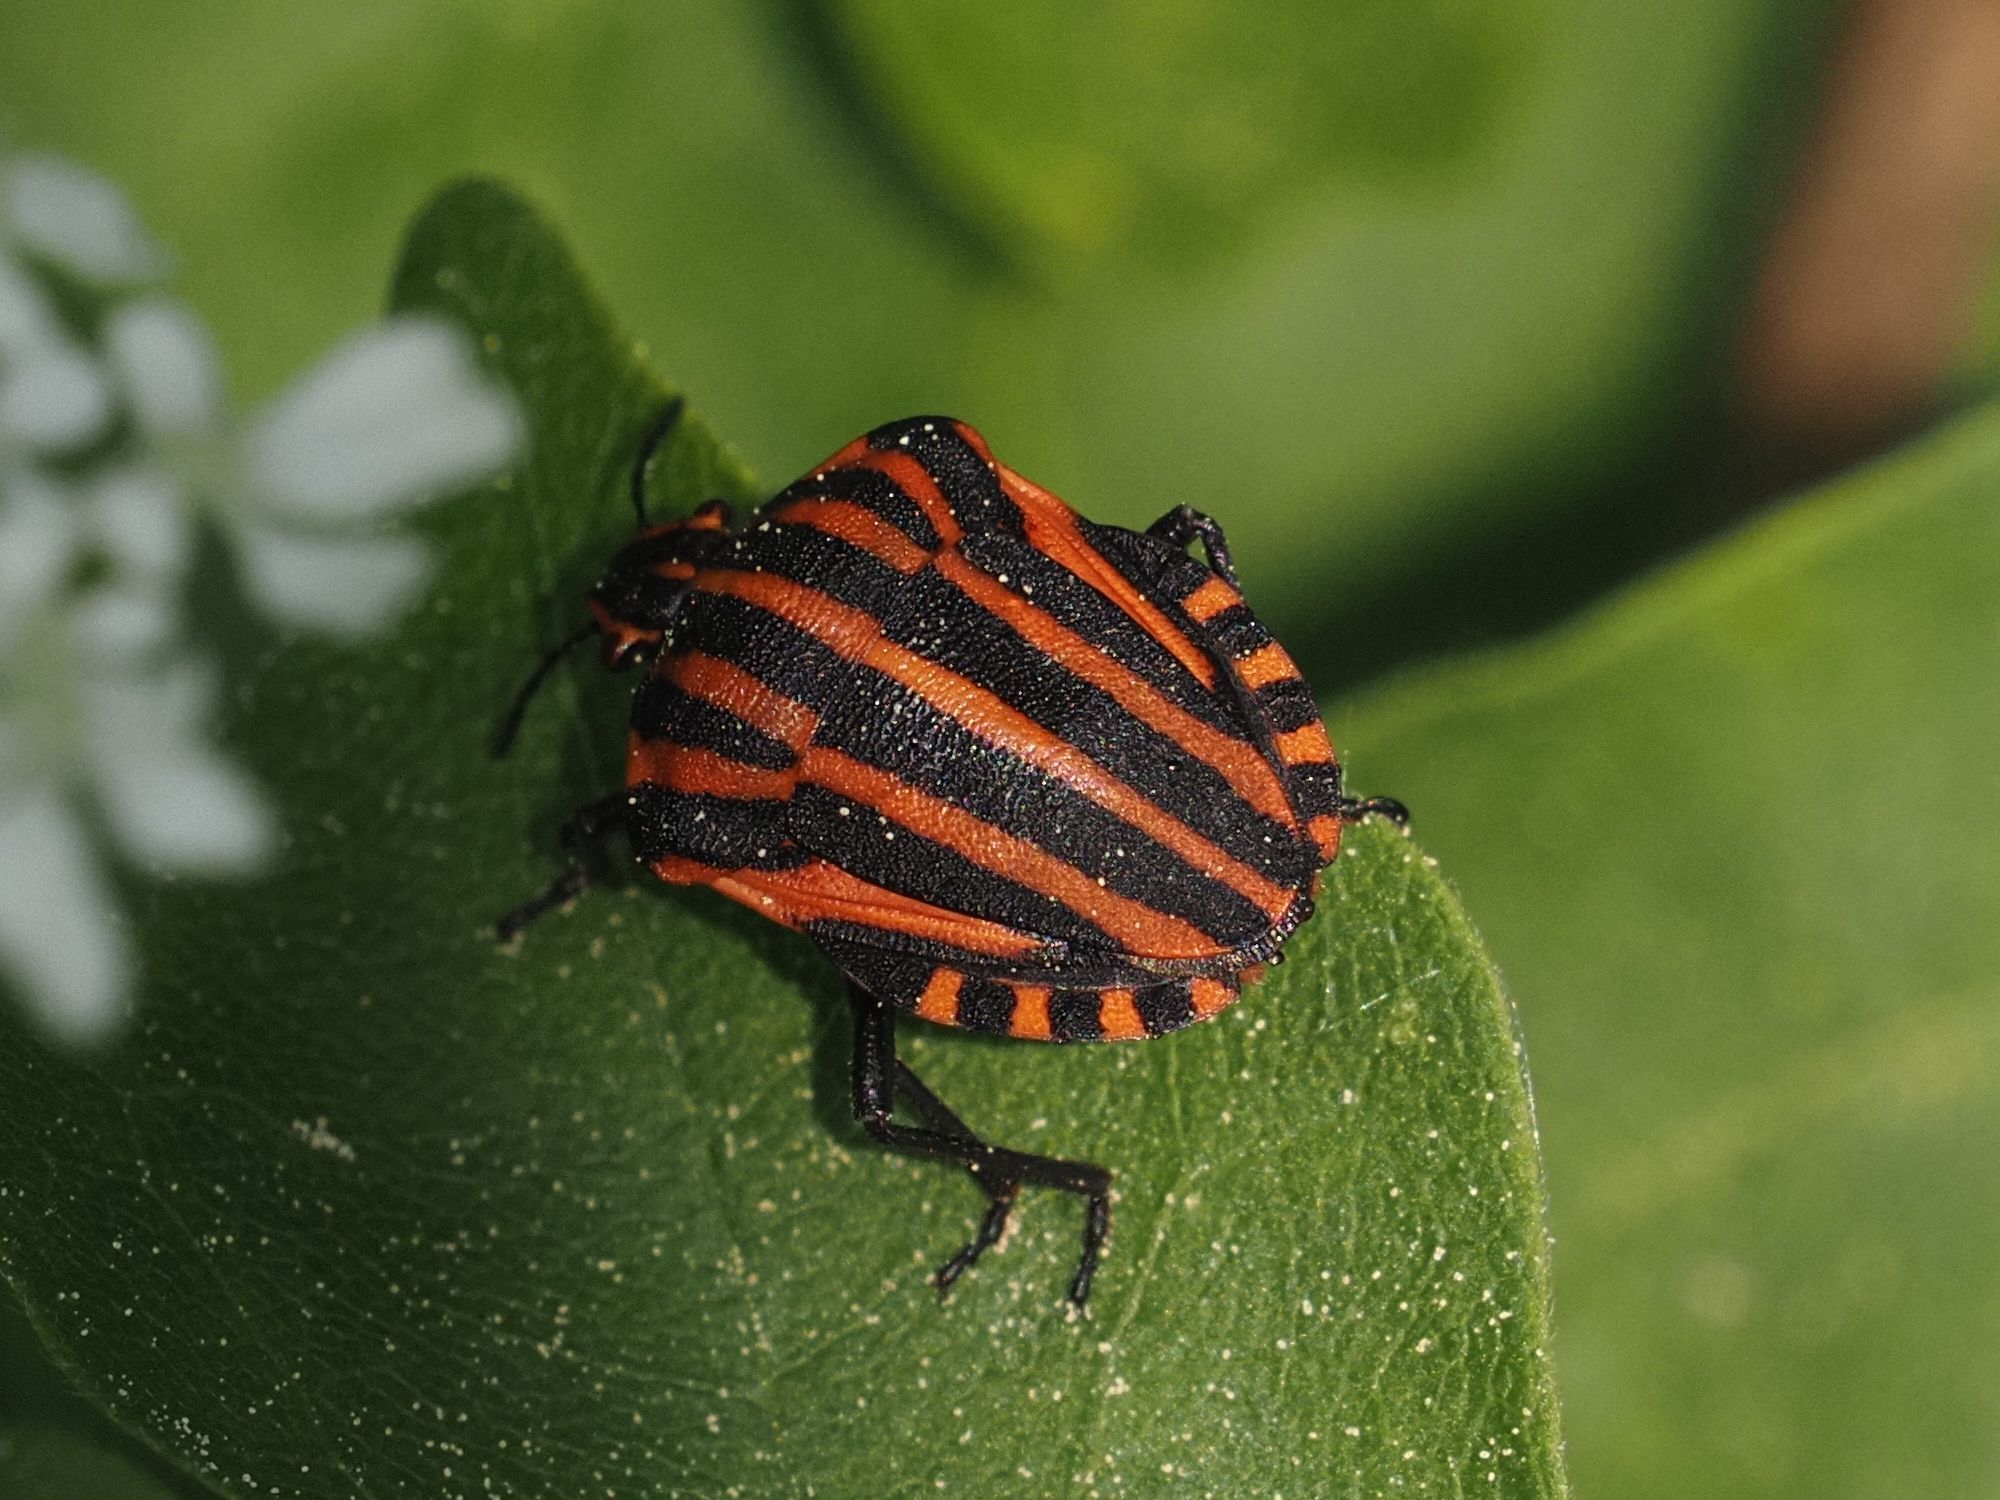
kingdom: Animalia
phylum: Arthropoda
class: Insecta
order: Hemiptera
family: Pentatomidae
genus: Graphosoma
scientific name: Graphosoma italicum
